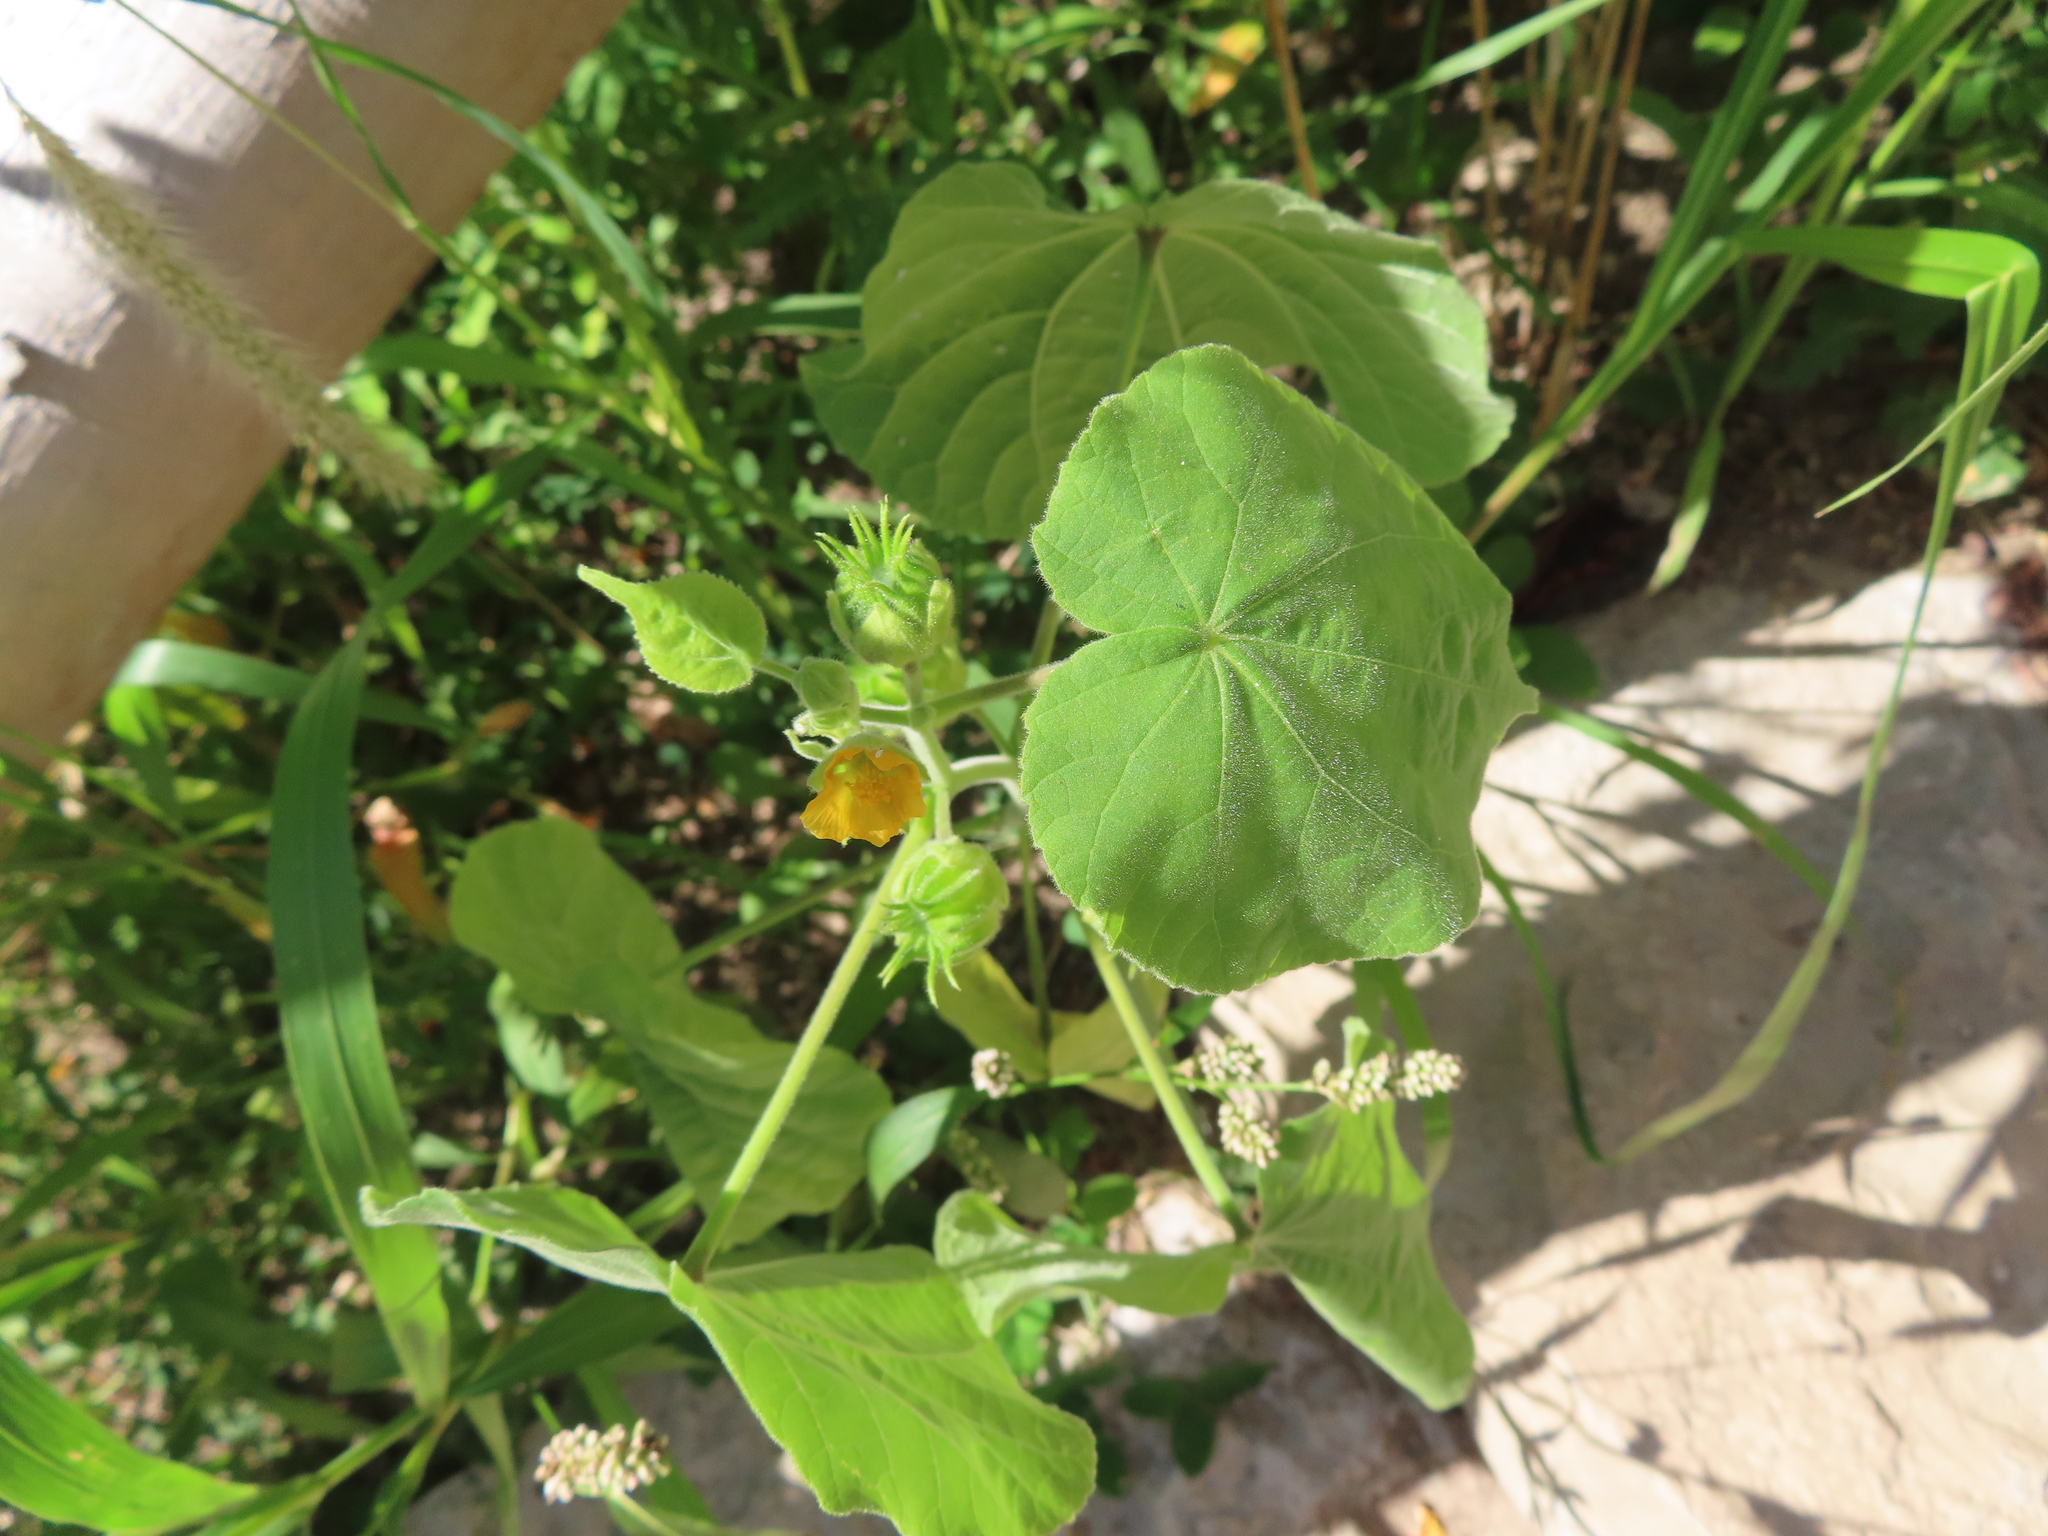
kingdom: Plantae
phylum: Tracheophyta
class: Magnoliopsida
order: Malvales
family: Malvaceae
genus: Abutilon
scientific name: Abutilon theophrasti
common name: Velvetleaf
